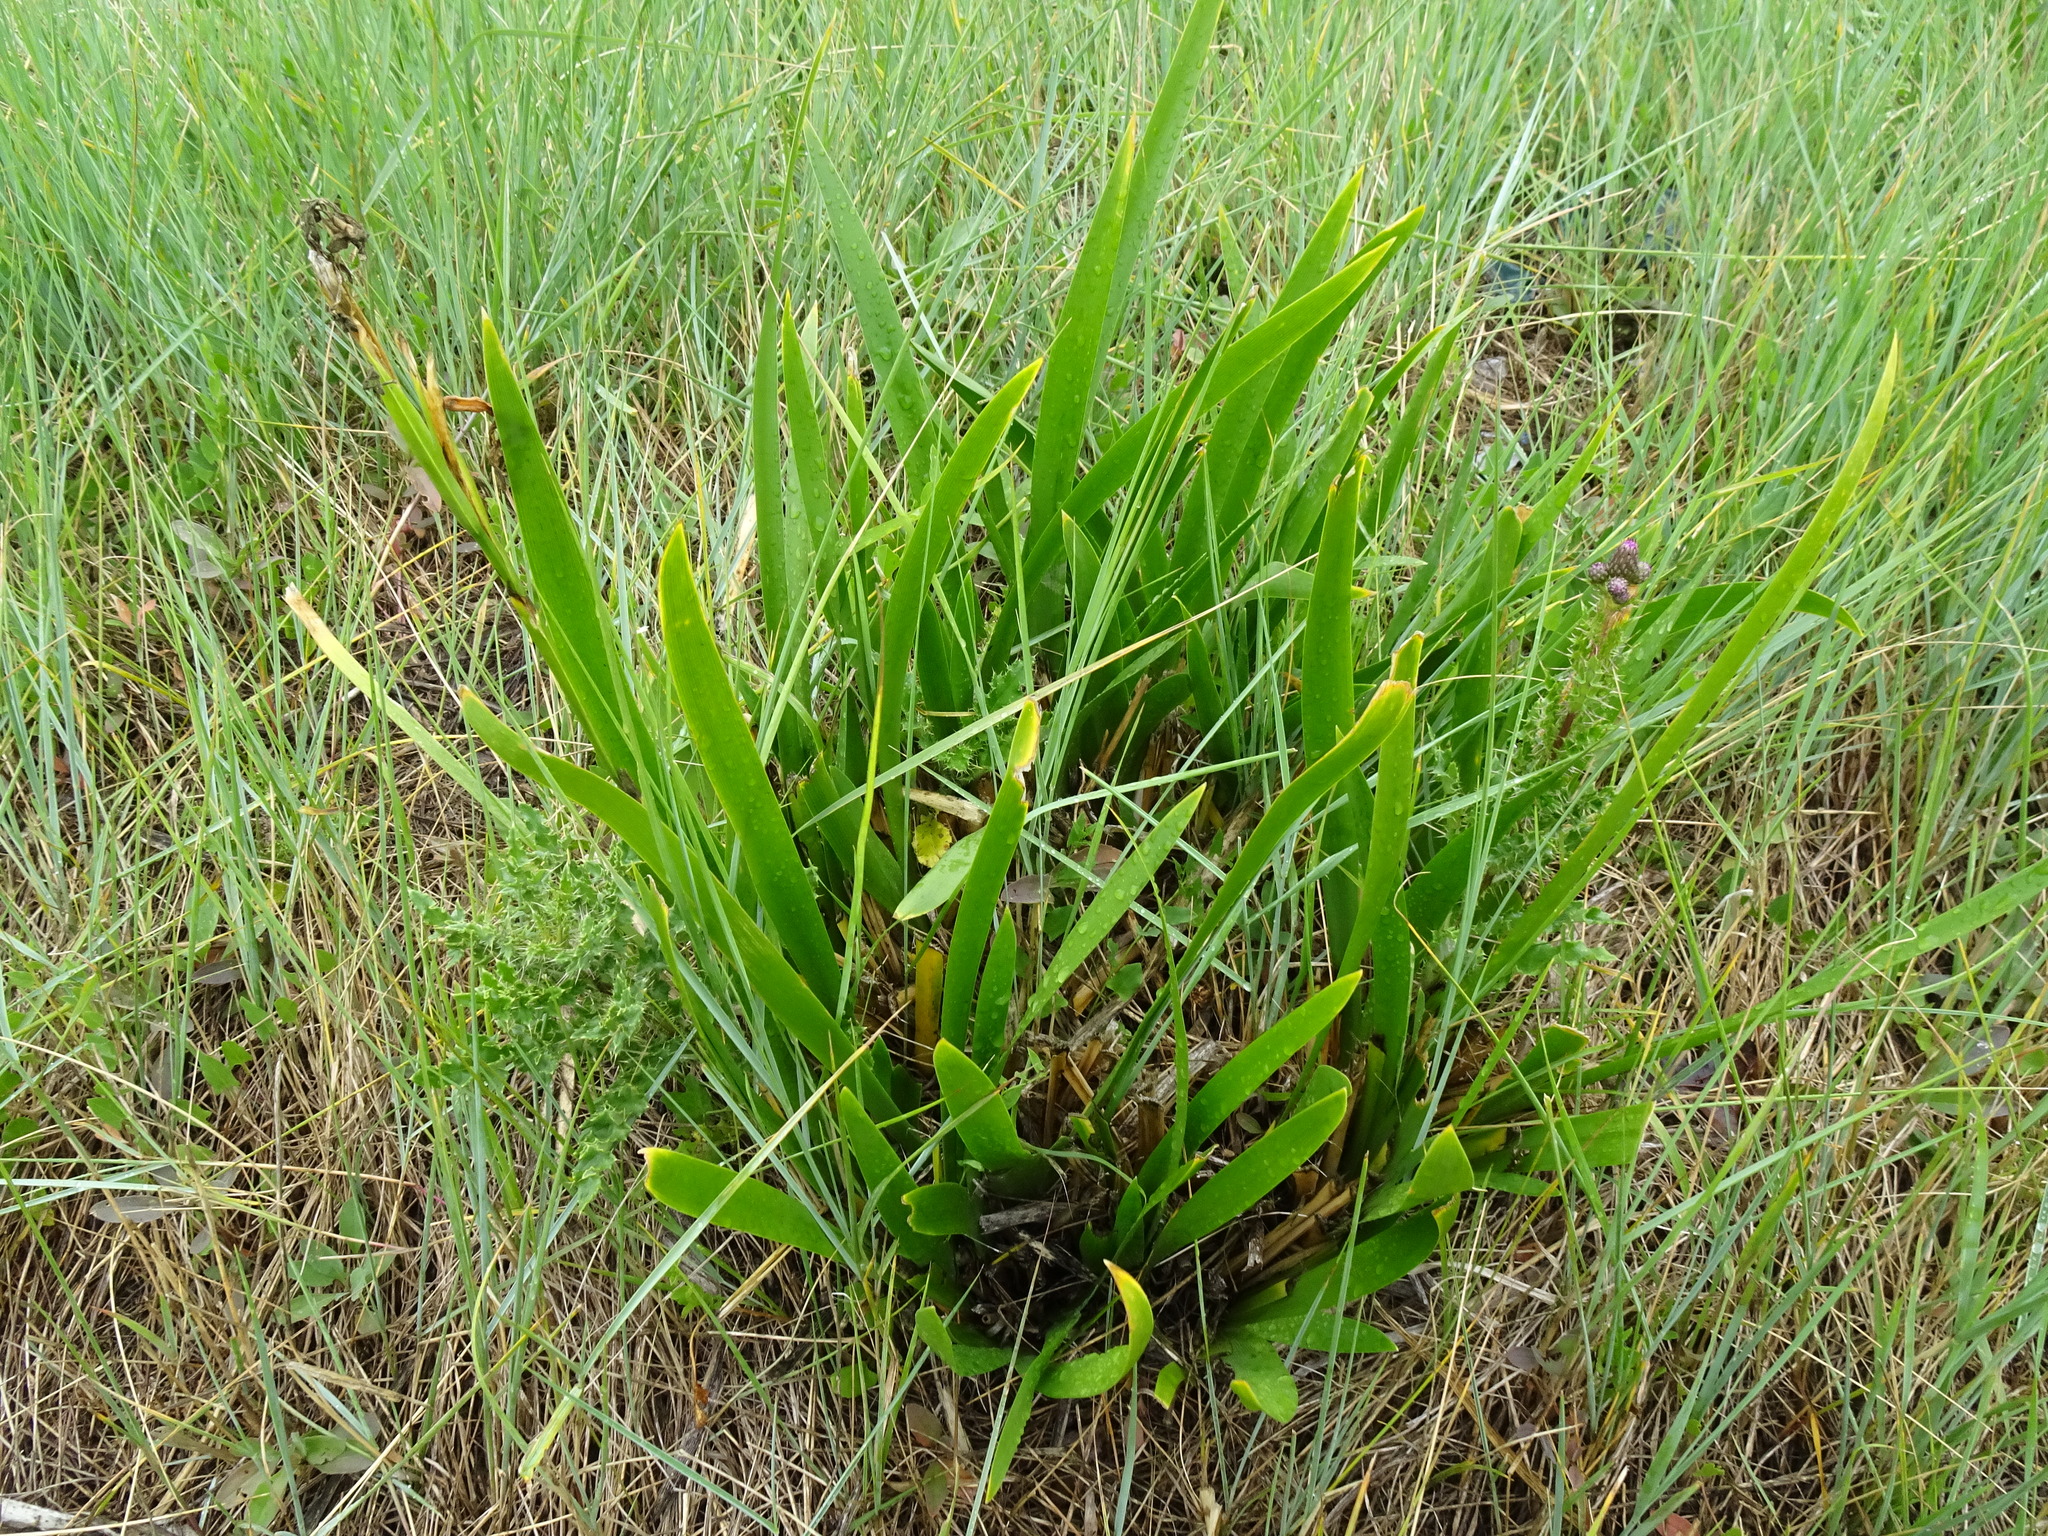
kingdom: Plantae
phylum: Tracheophyta
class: Liliopsida
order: Asparagales
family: Iridaceae
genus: Iris
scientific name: Iris foetidissima
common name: Stinking iris
